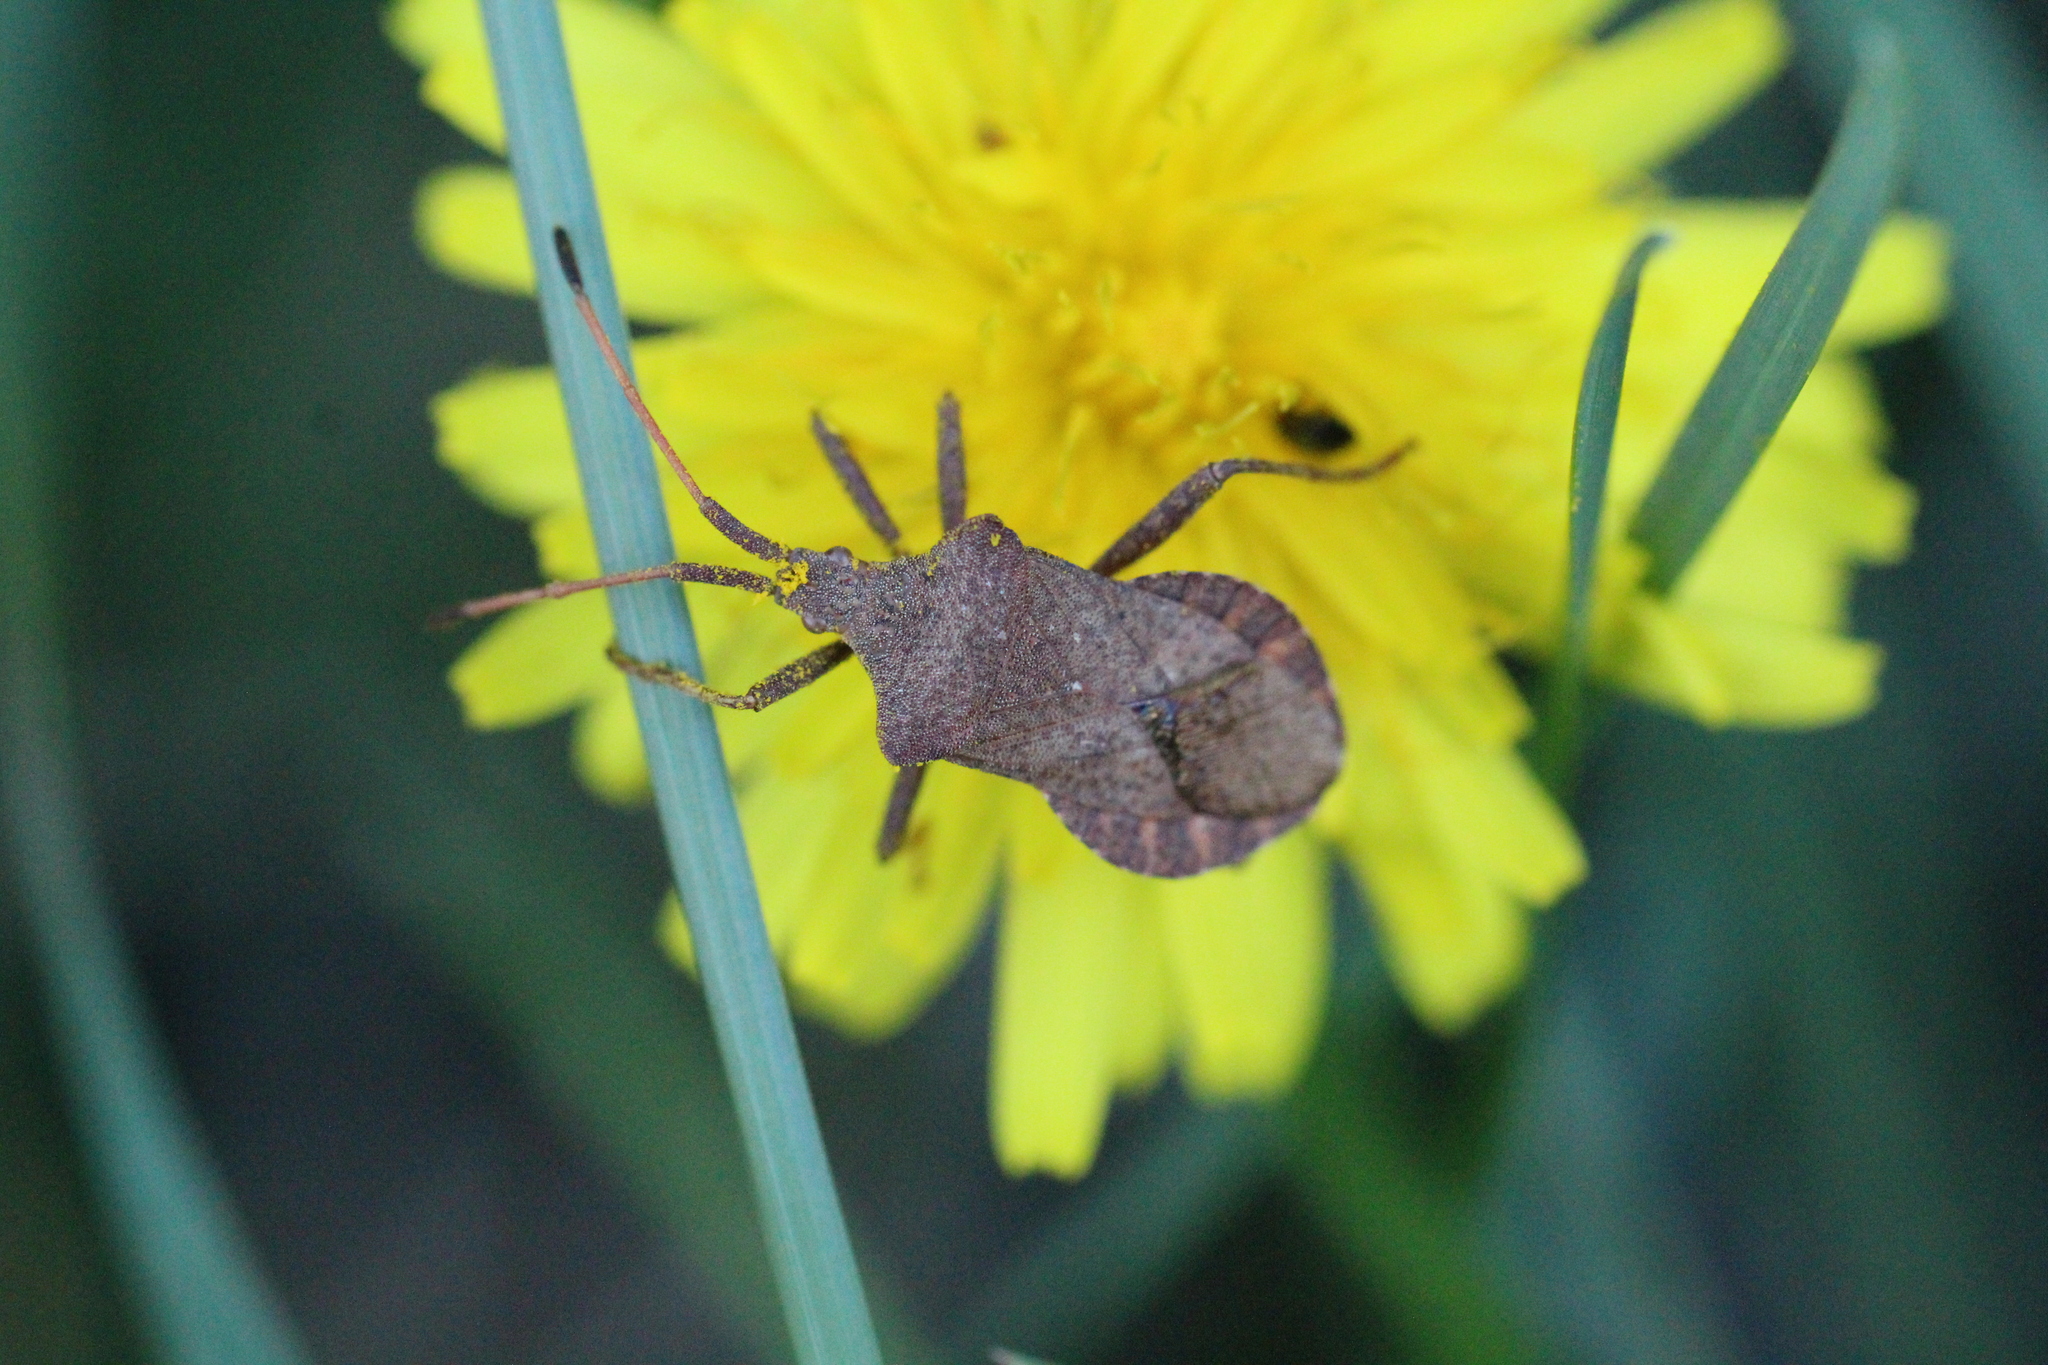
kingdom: Animalia
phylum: Arthropoda
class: Insecta
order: Hemiptera
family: Coreidae
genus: Coreus
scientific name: Coreus marginatus
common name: Dock bug
